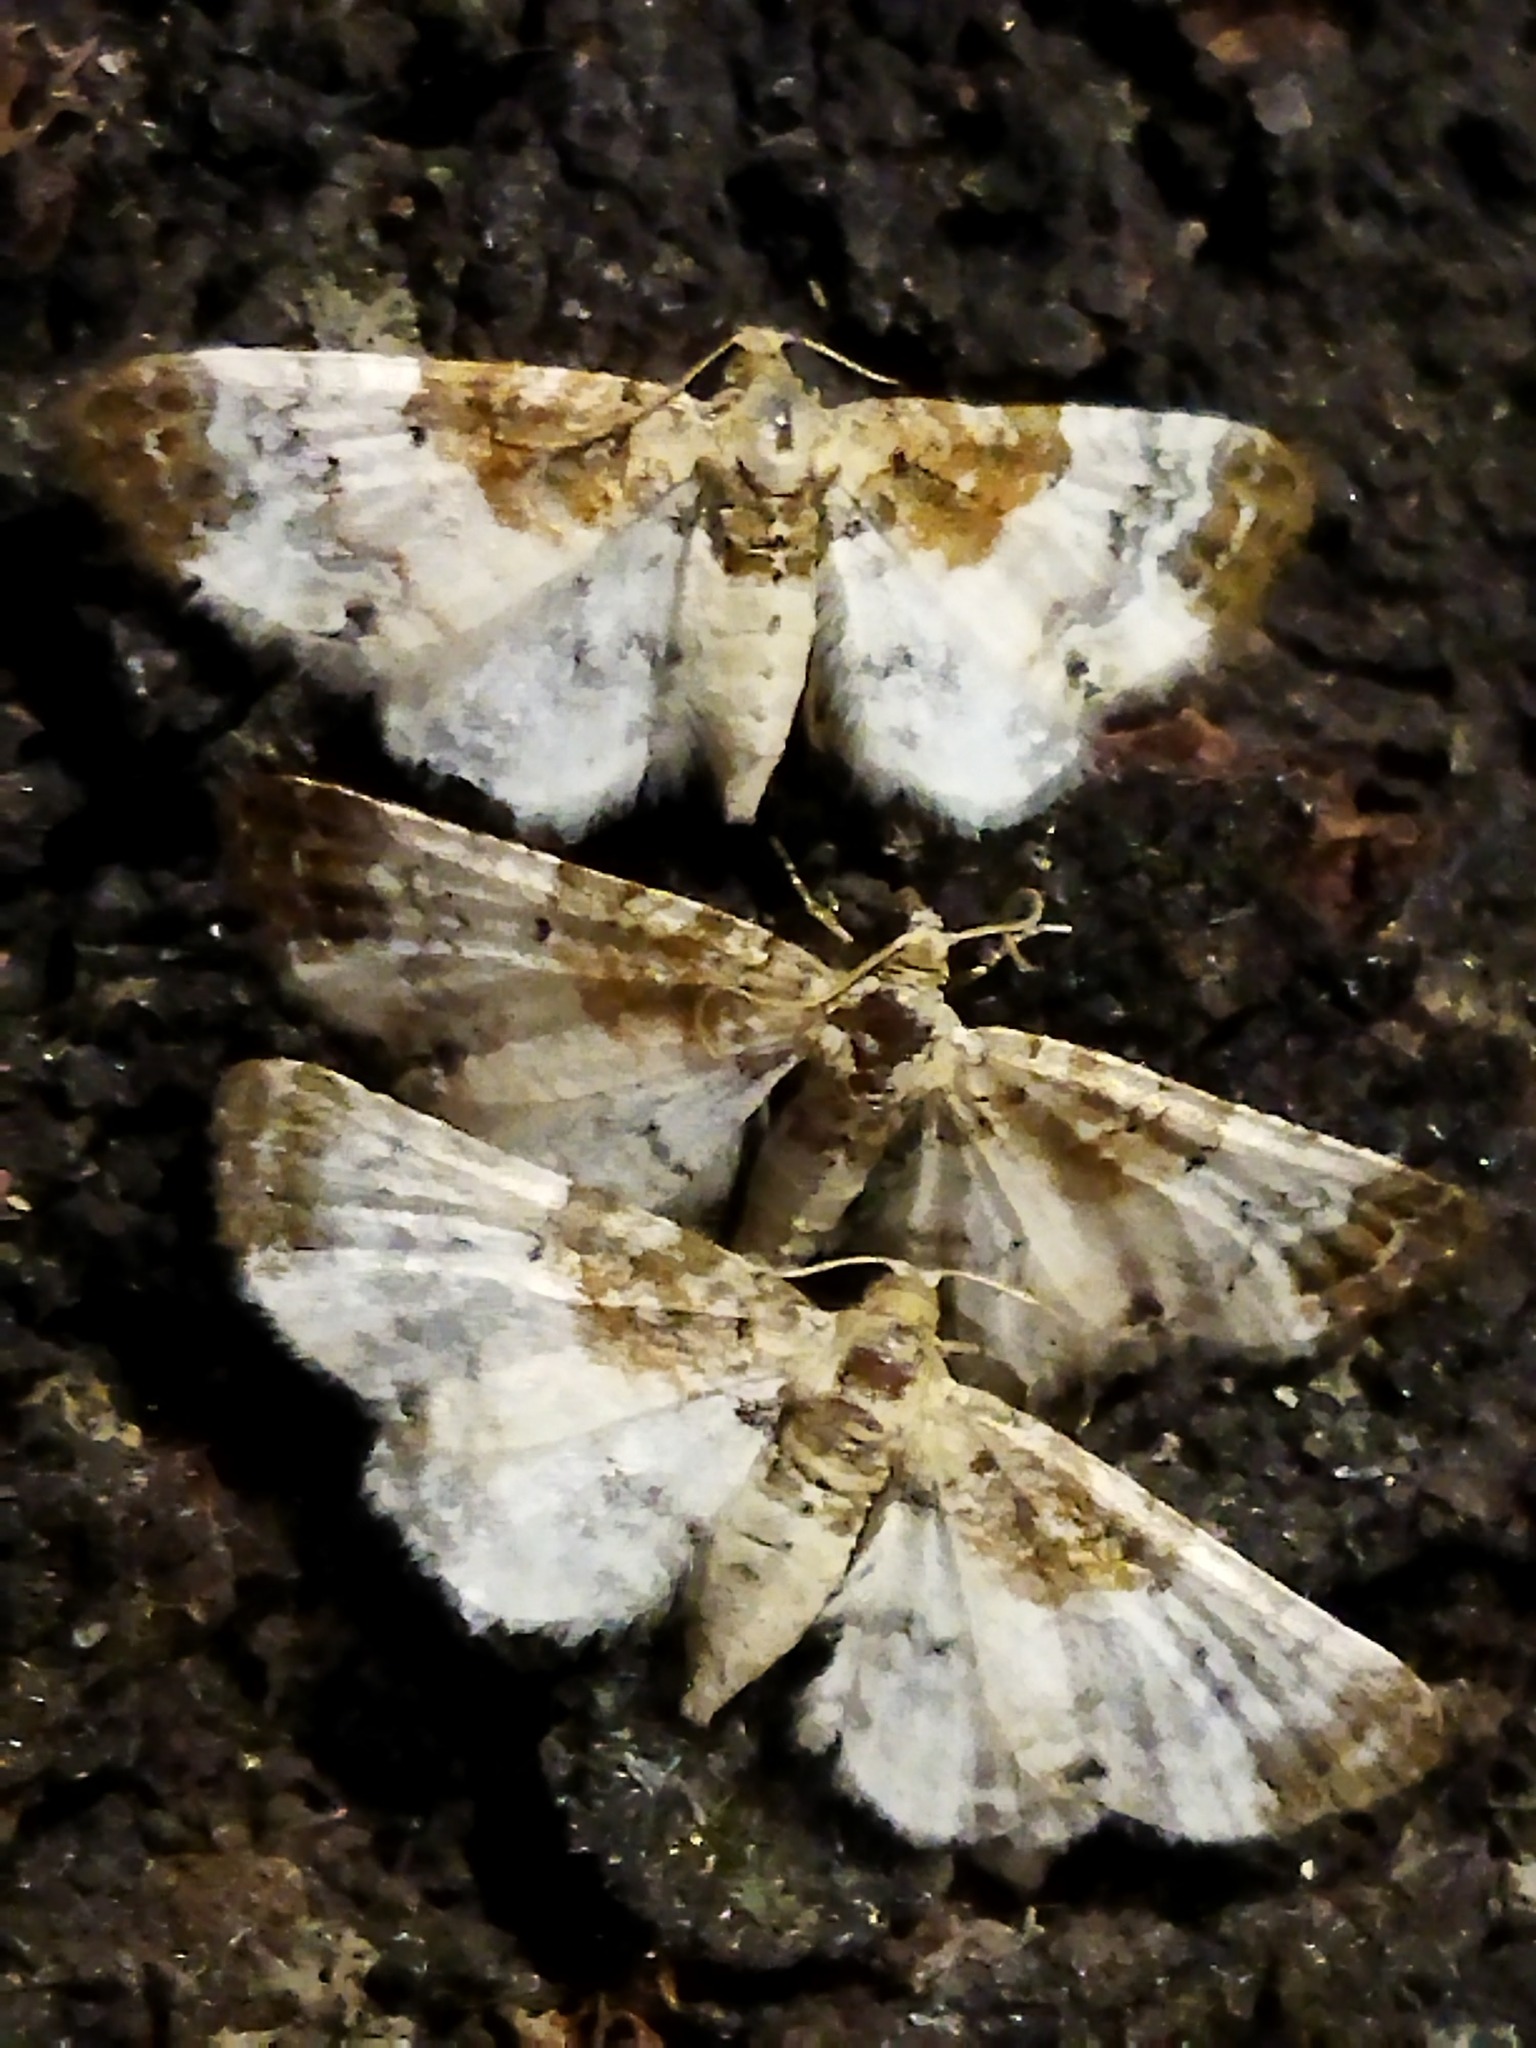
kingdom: Animalia
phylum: Arthropoda
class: Insecta
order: Lepidoptera
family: Geometridae
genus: Eupithecia
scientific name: Eupithecia breviculata
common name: Rusty-shouldered pug
